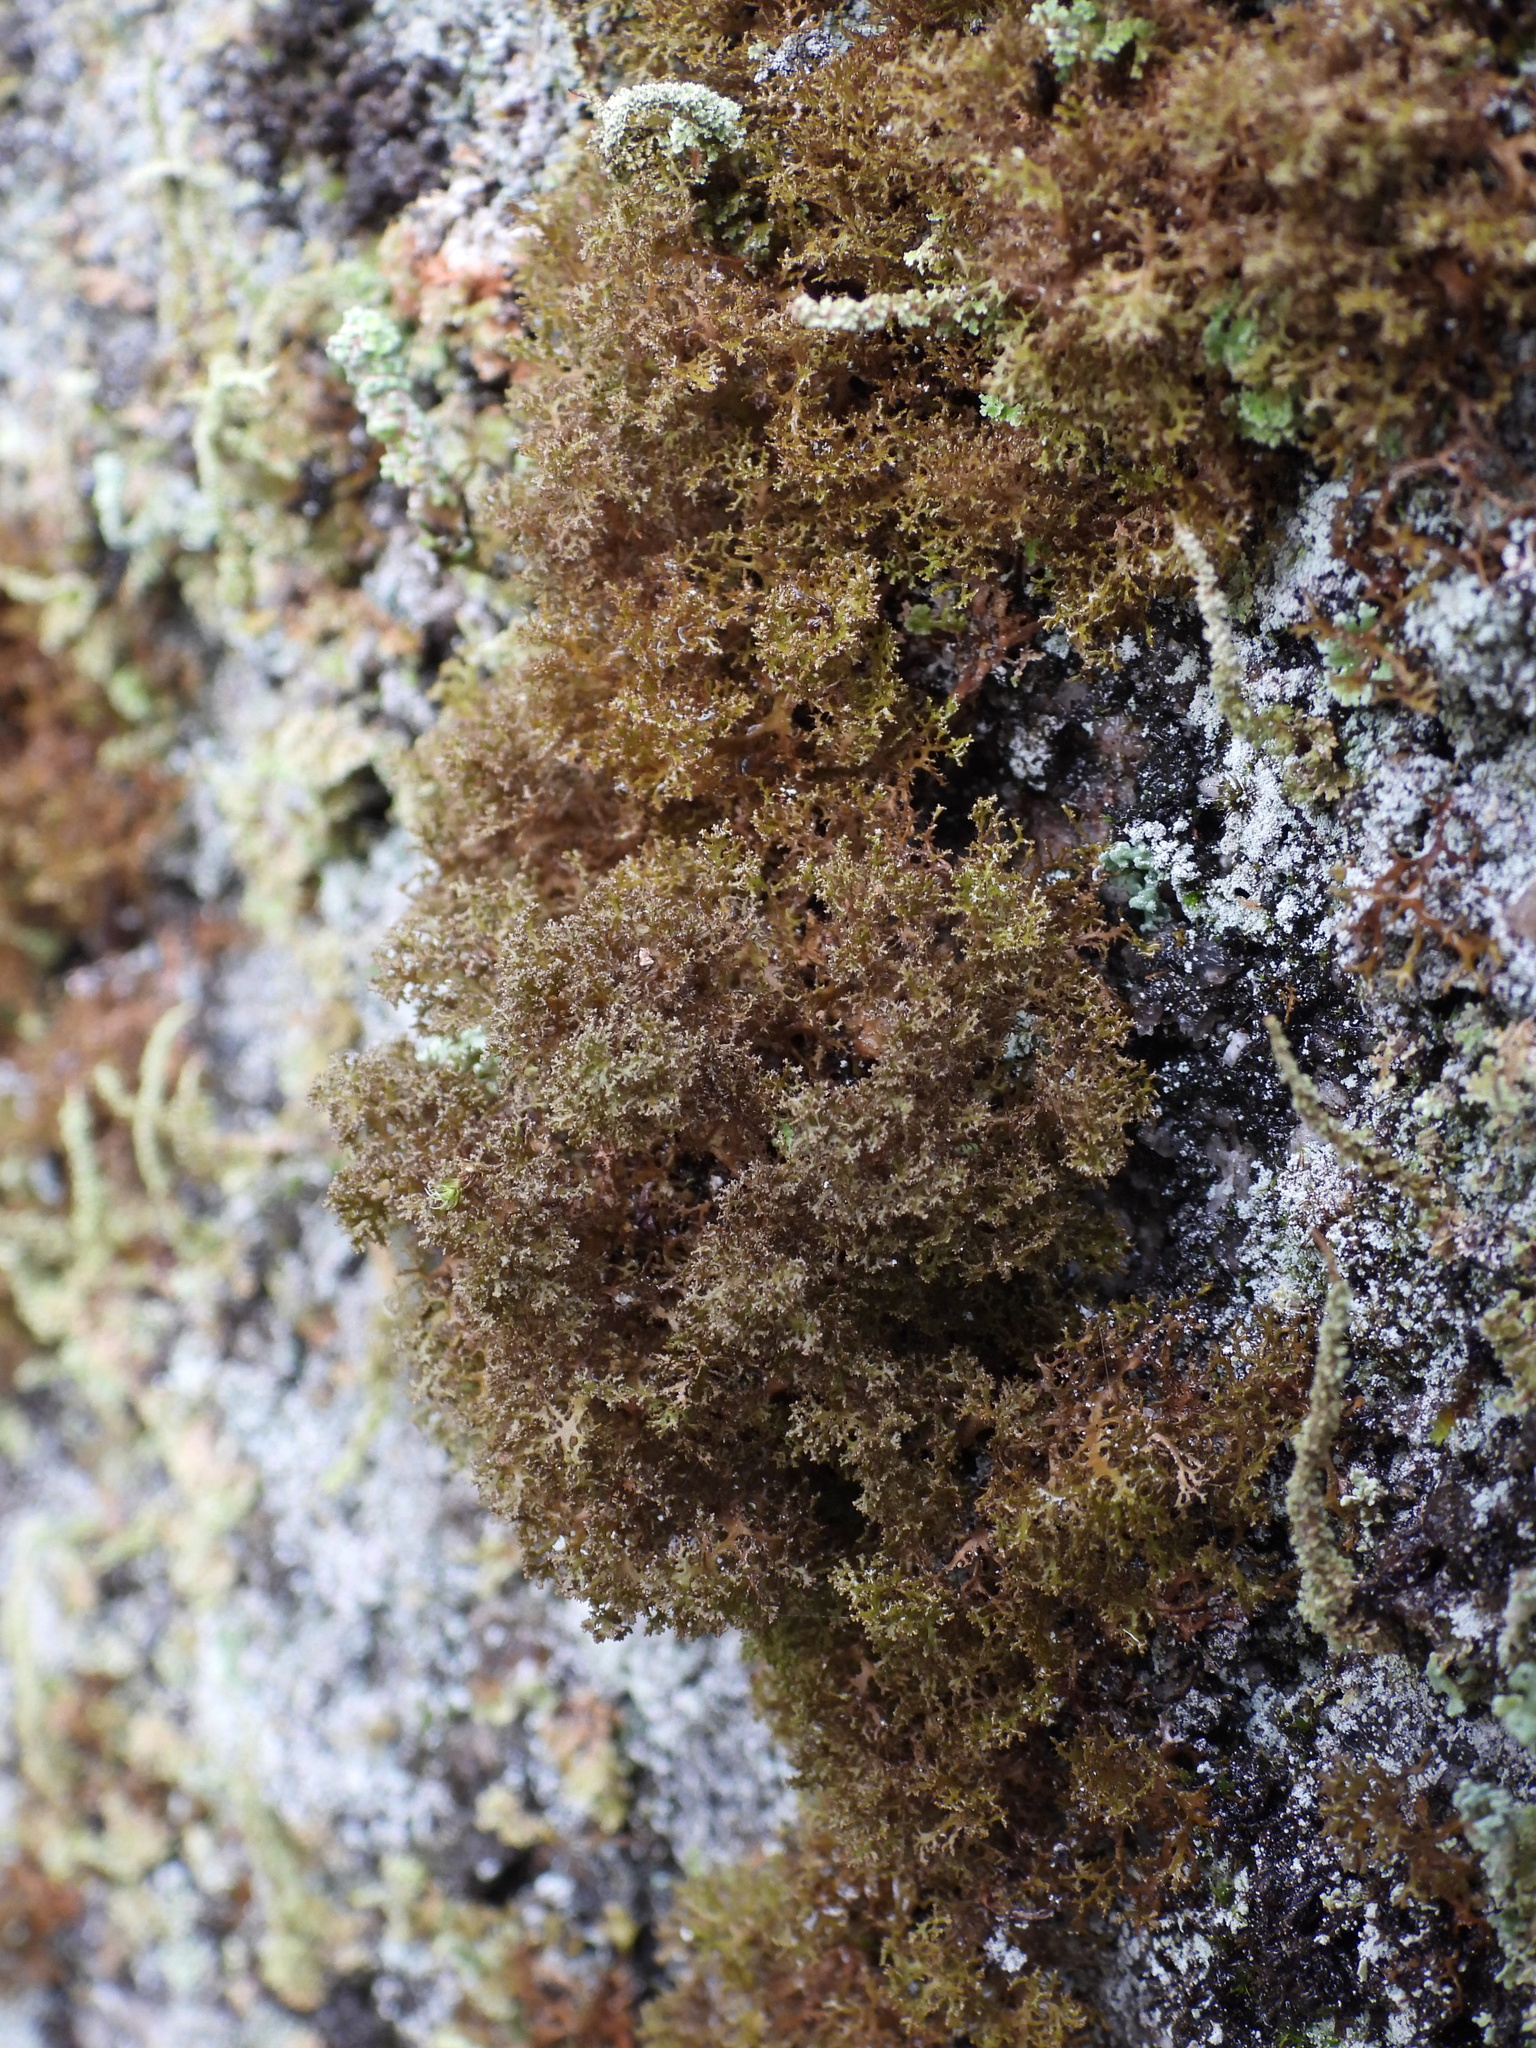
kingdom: Fungi
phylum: Ascomycota
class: Lecanoromycetes
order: Lecanorales
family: Parmeliaceae
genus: Cetraria
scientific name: Cetraria odontella
